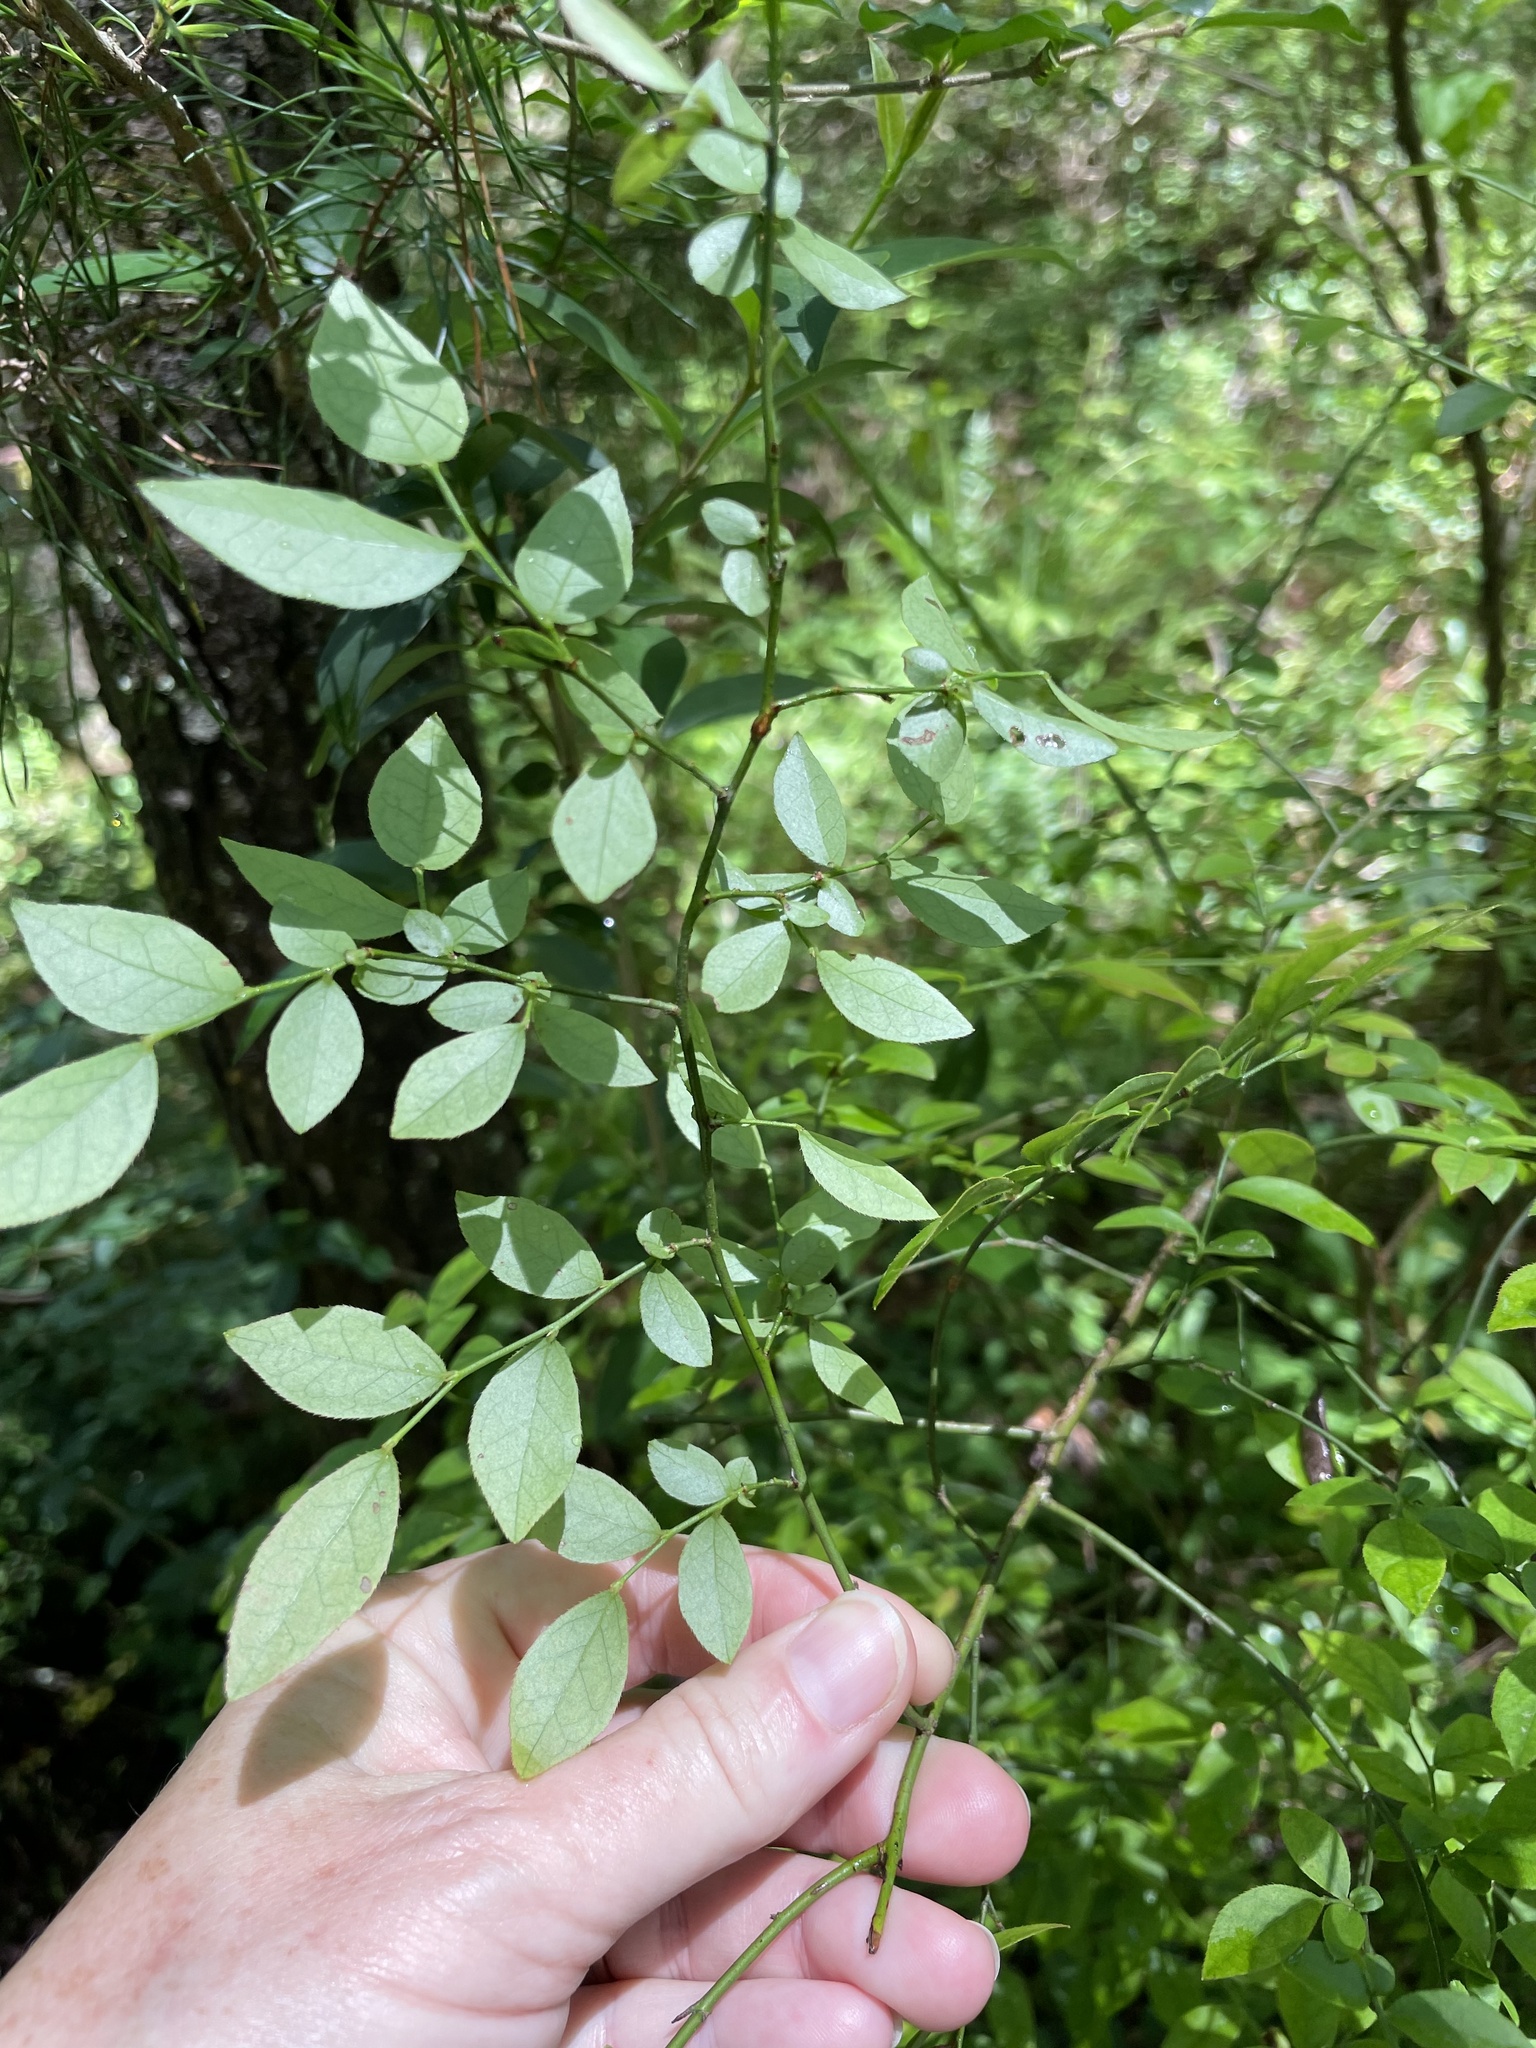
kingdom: Plantae
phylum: Tracheophyta
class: Magnoliopsida
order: Ericales
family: Ericaceae
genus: Vaccinium
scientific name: Vaccinium corymbosum
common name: Blueberry
